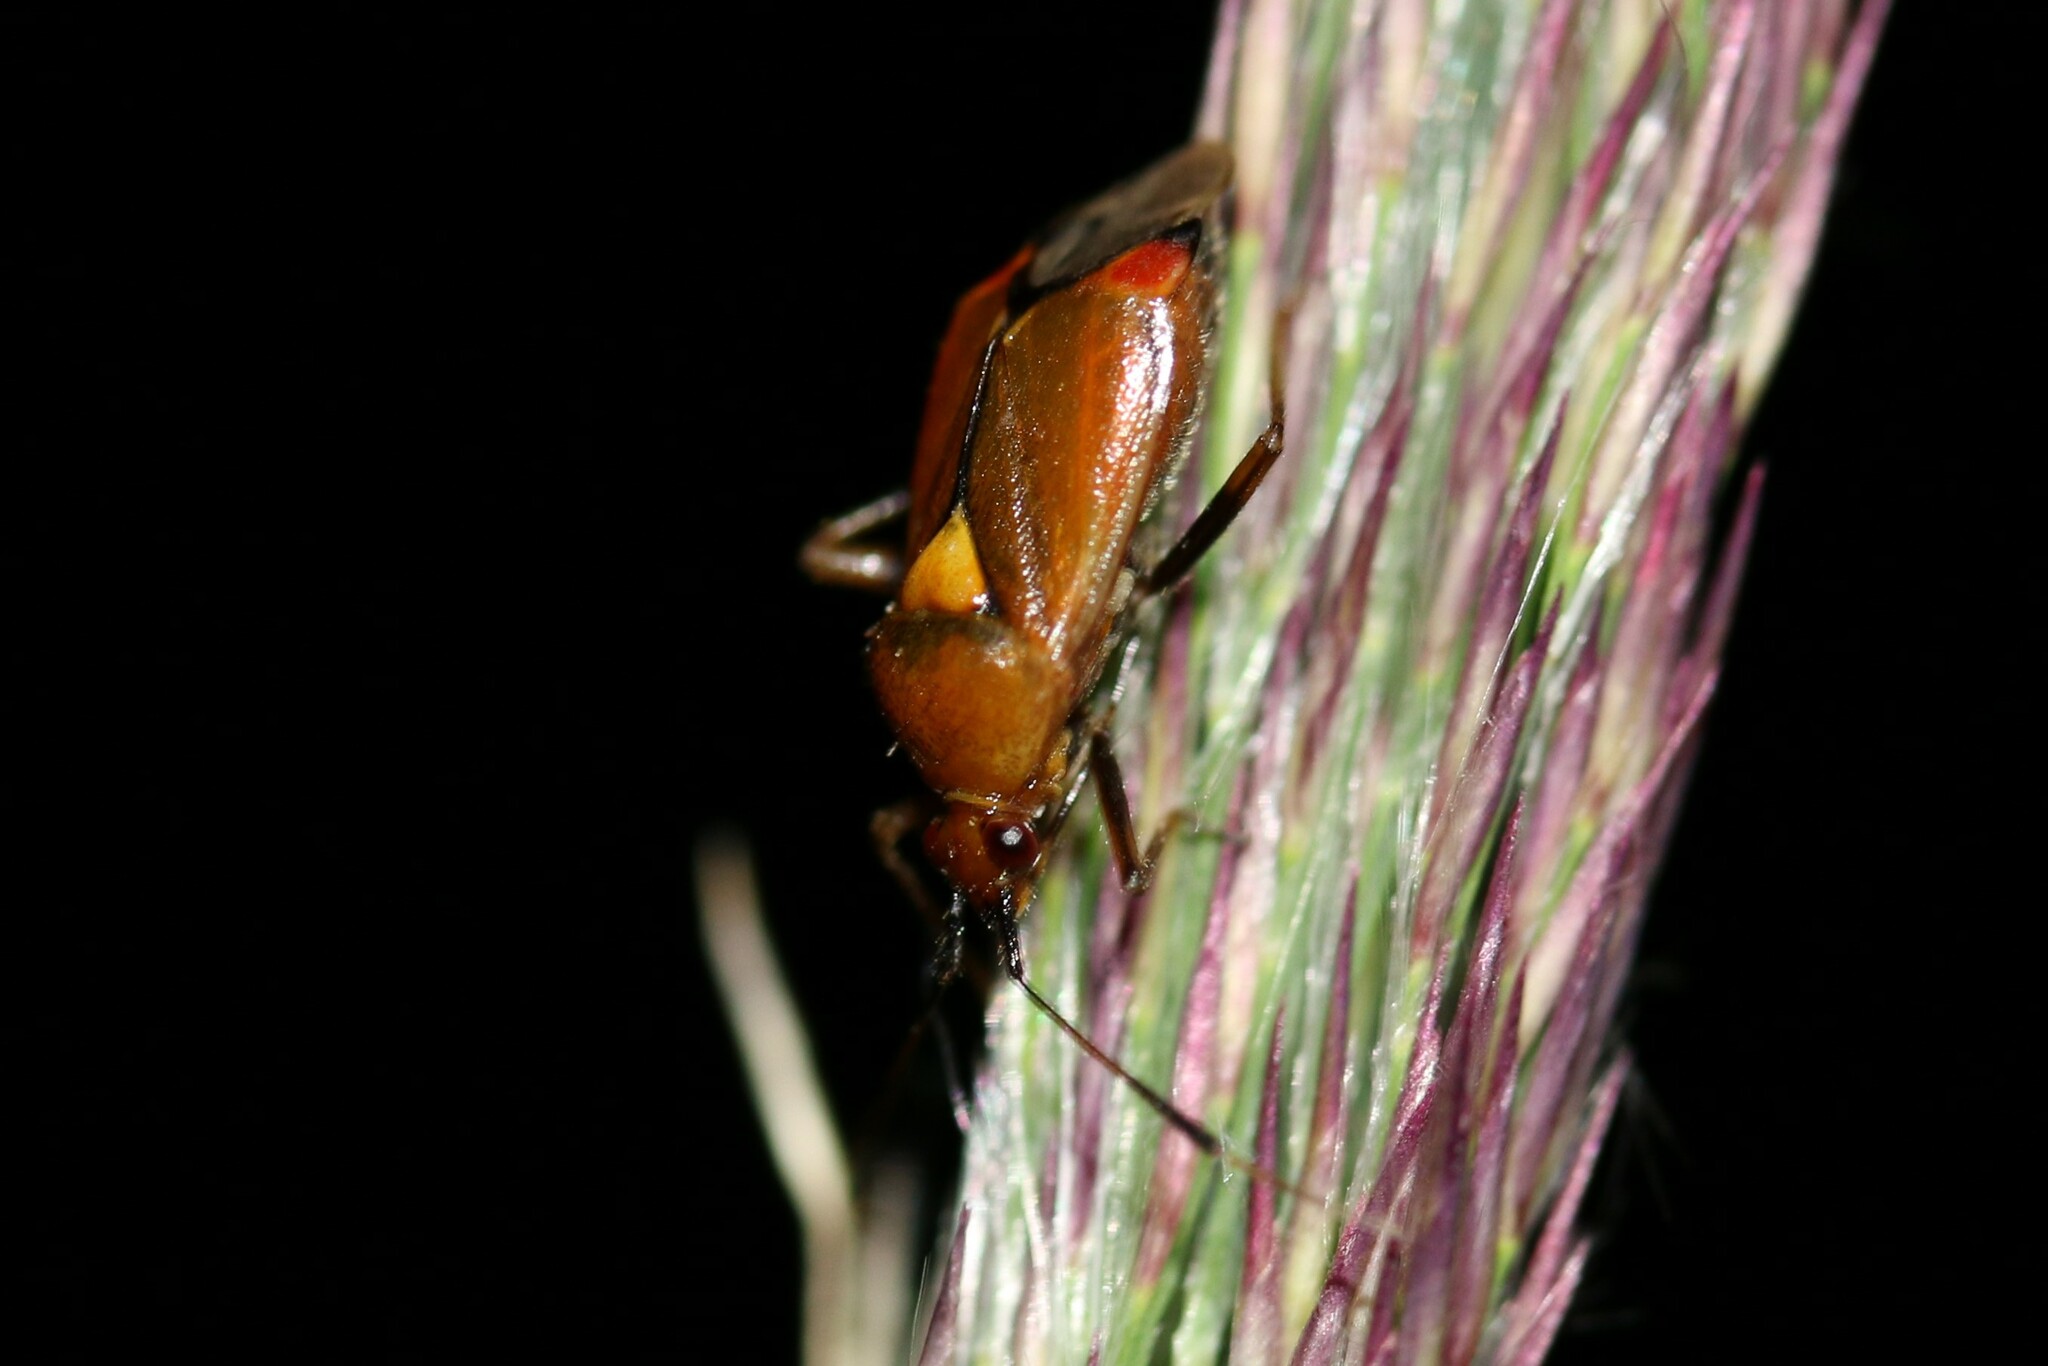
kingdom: Animalia
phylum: Arthropoda
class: Insecta
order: Hemiptera
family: Miridae
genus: Deraeocoris
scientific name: Deraeocoris ruber
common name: Plant bug
